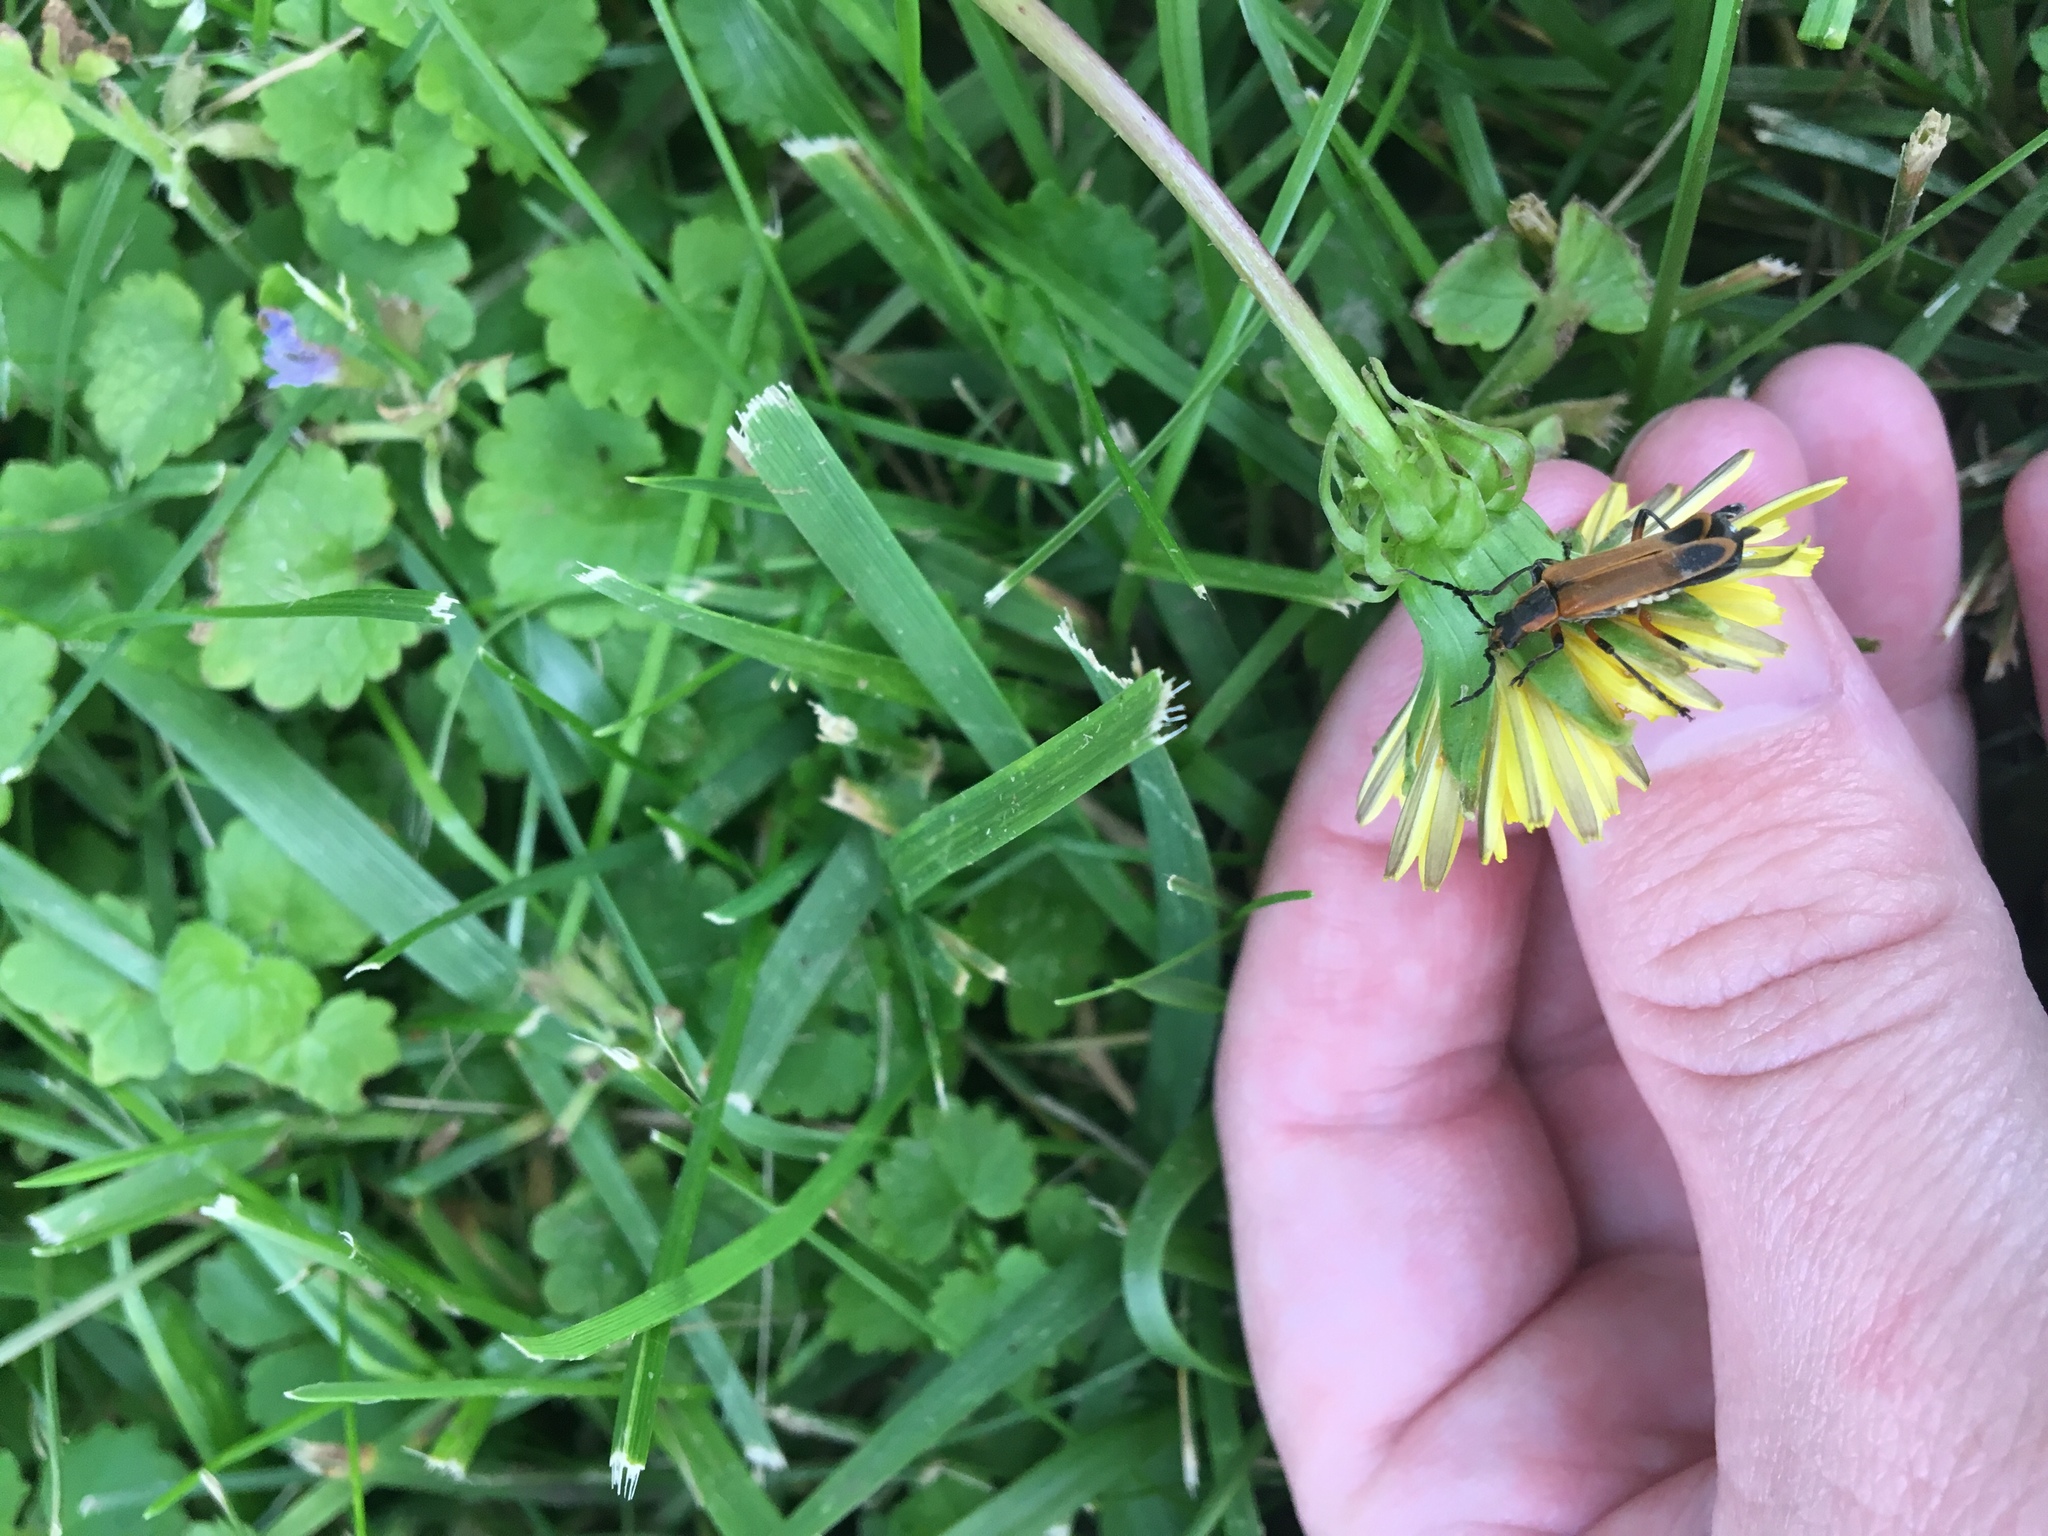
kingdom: Animalia
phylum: Arthropoda
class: Insecta
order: Coleoptera
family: Cantharidae
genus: Chauliognathus
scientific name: Chauliognathus marginatus
